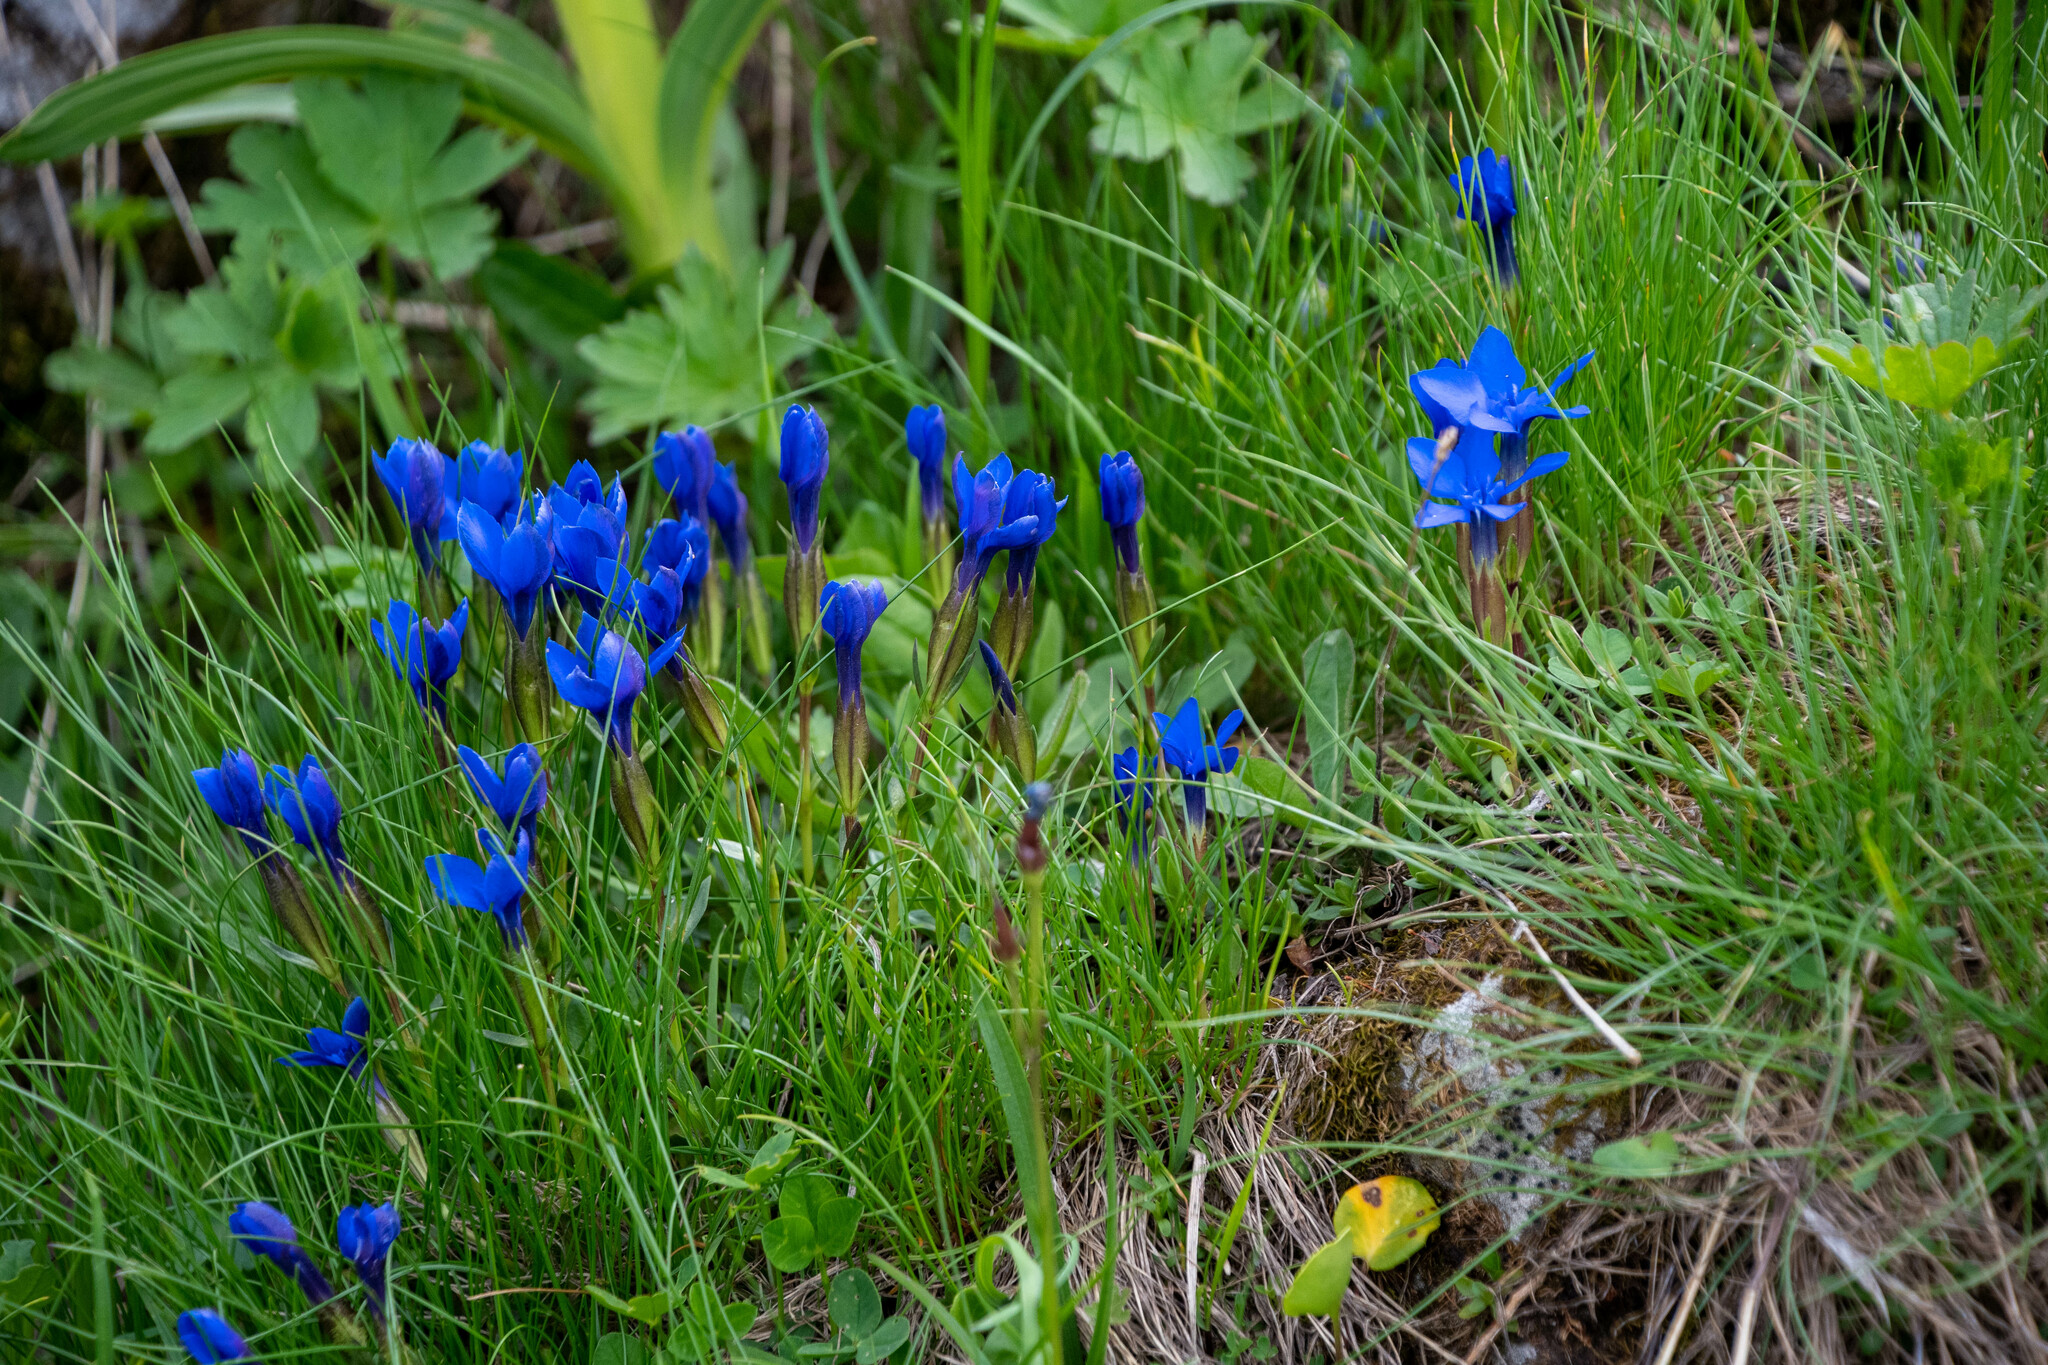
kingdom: Plantae
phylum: Tracheophyta
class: Magnoliopsida
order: Gentianales
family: Gentianaceae
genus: Gentiana
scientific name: Gentiana verna
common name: Spring gentian
